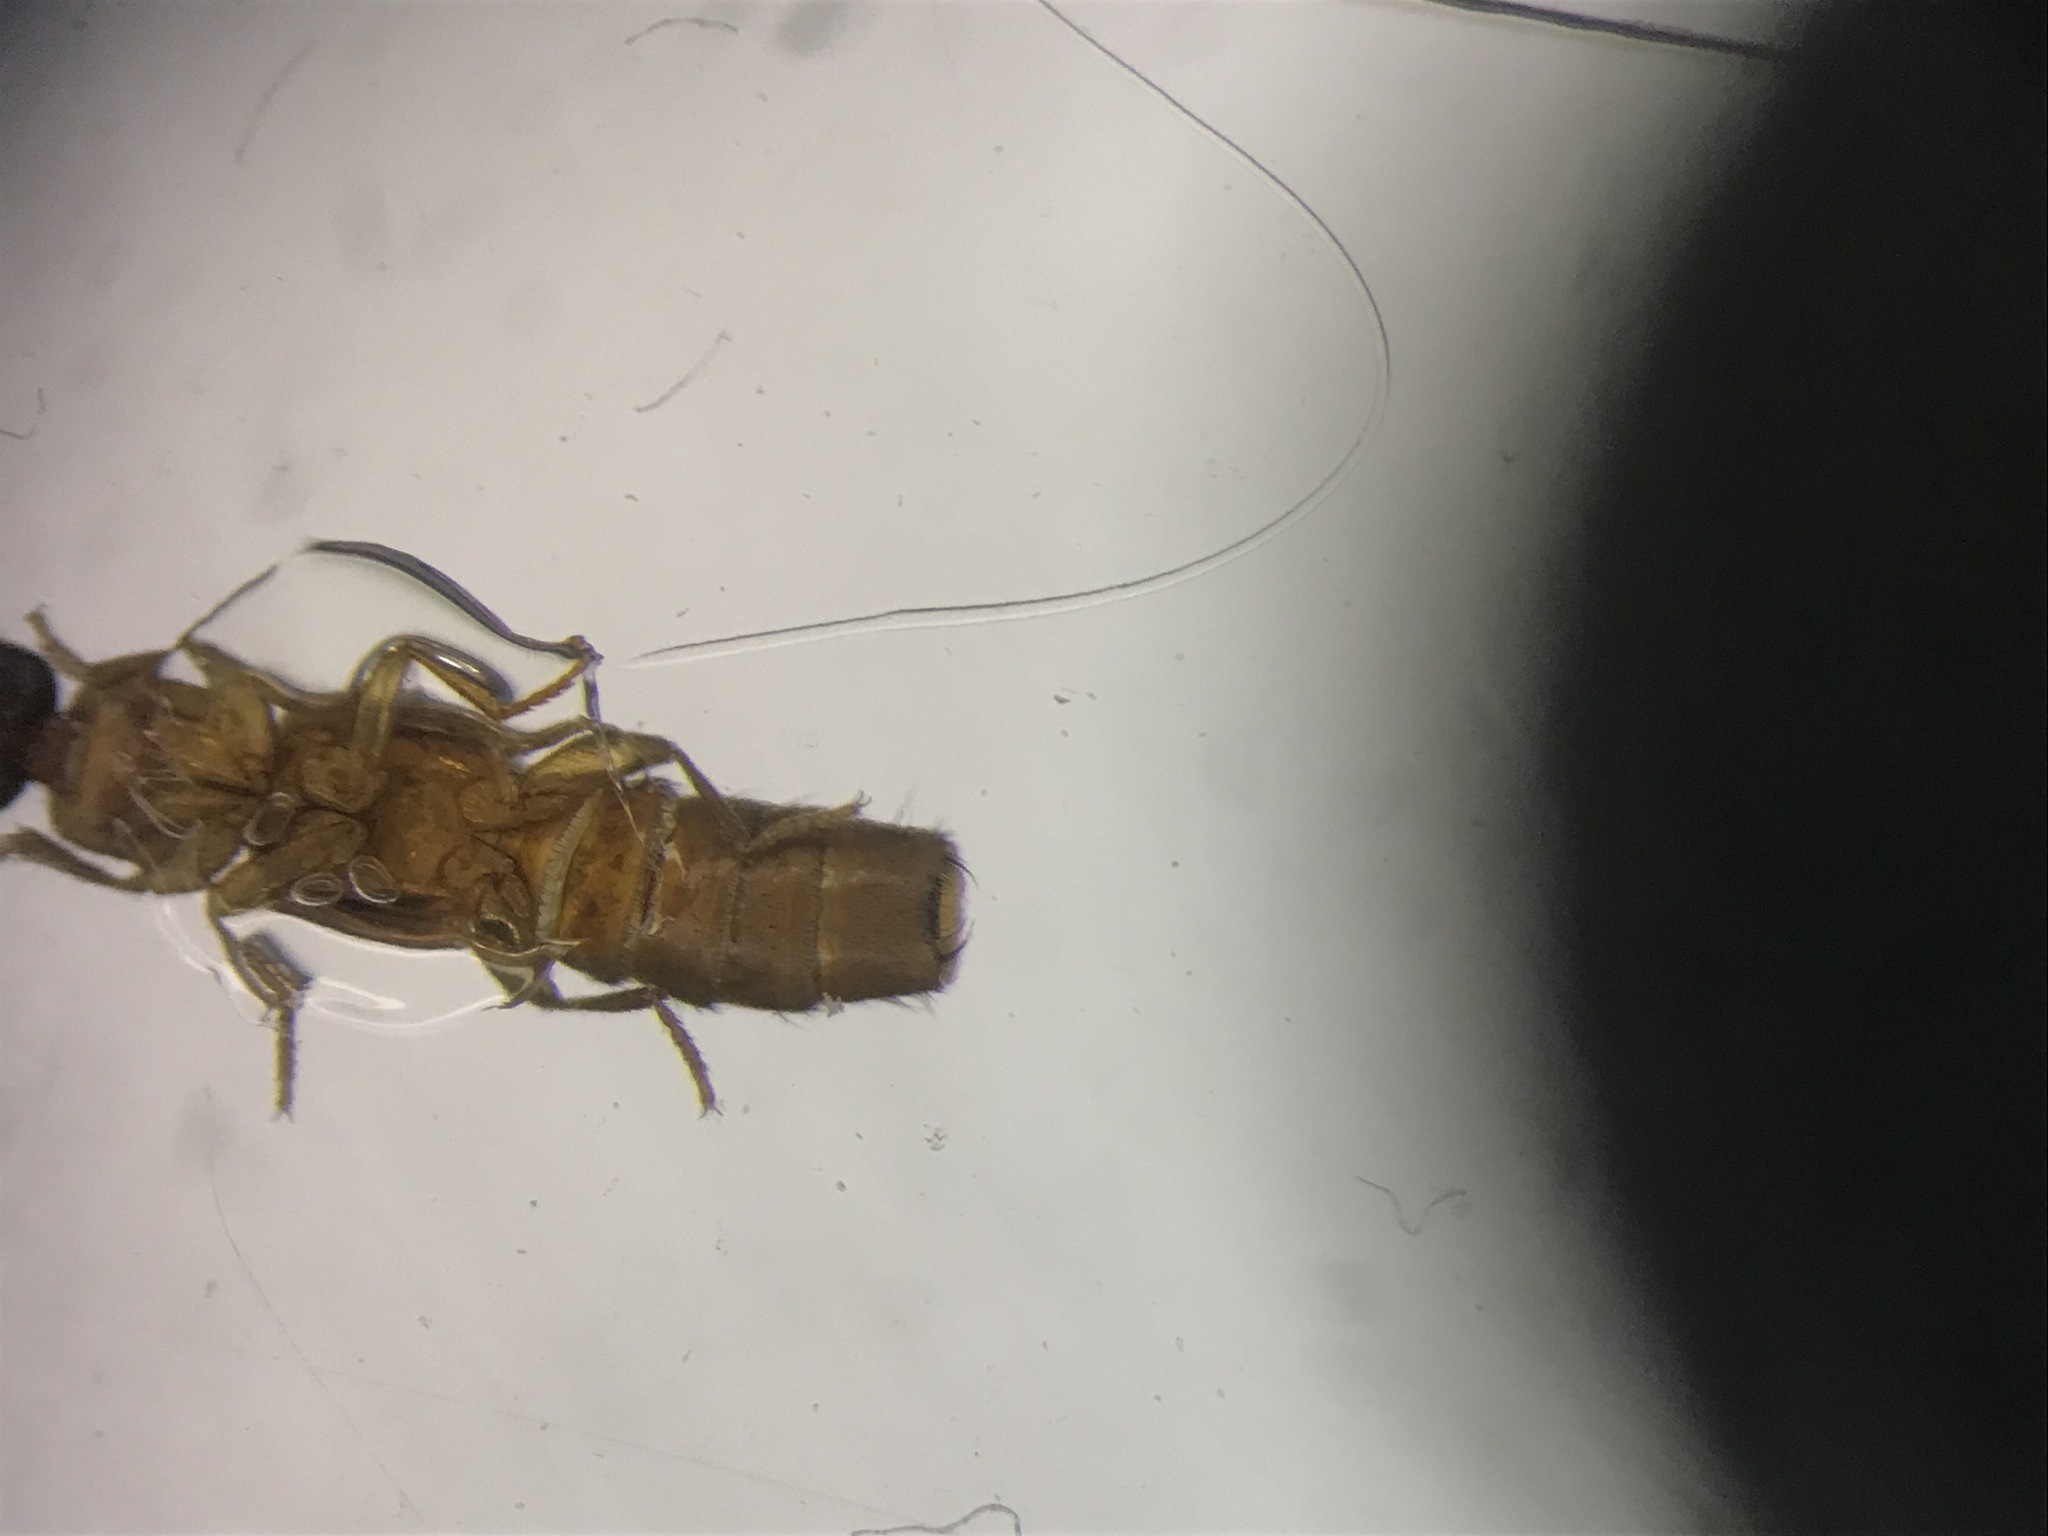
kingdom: Animalia
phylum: Arthropoda
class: Insecta
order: Coleoptera
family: Staphylinidae
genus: Lithocharis
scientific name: Lithocharis ochracea
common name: Rove beetle
